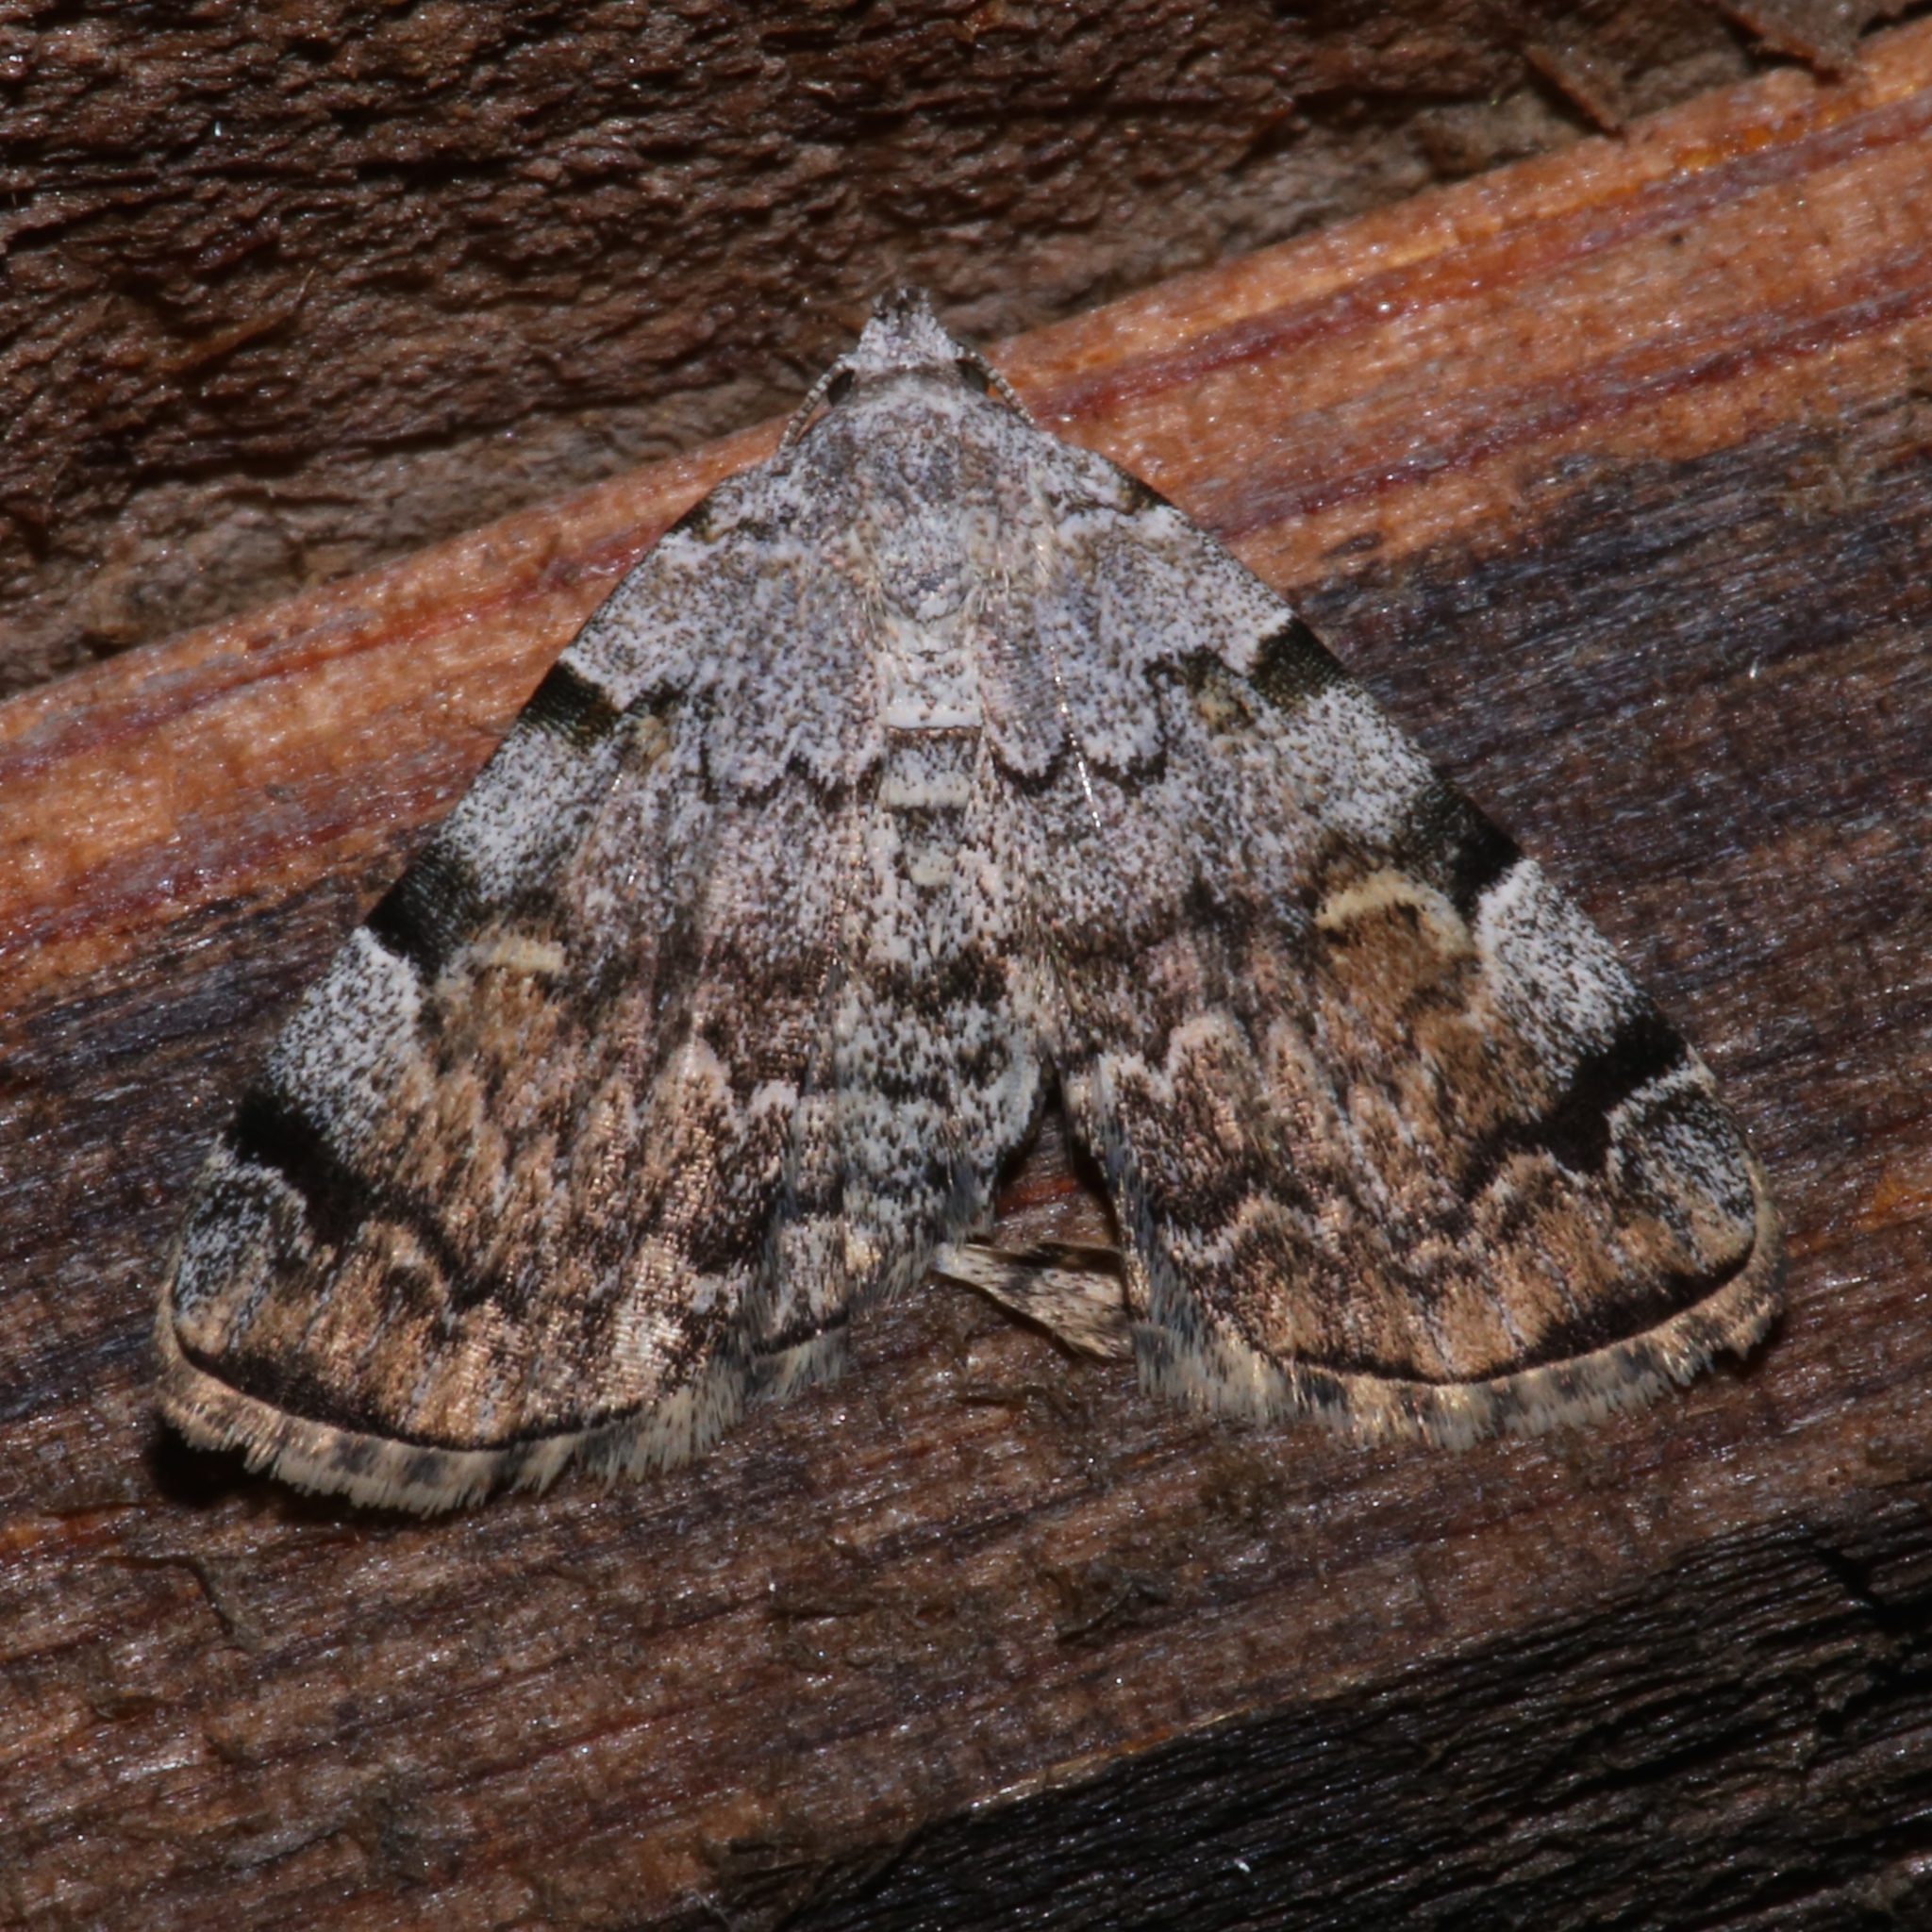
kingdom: Animalia
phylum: Arthropoda
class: Insecta
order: Lepidoptera
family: Erebidae
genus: Idia
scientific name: Idia americalis
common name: American idia moth
